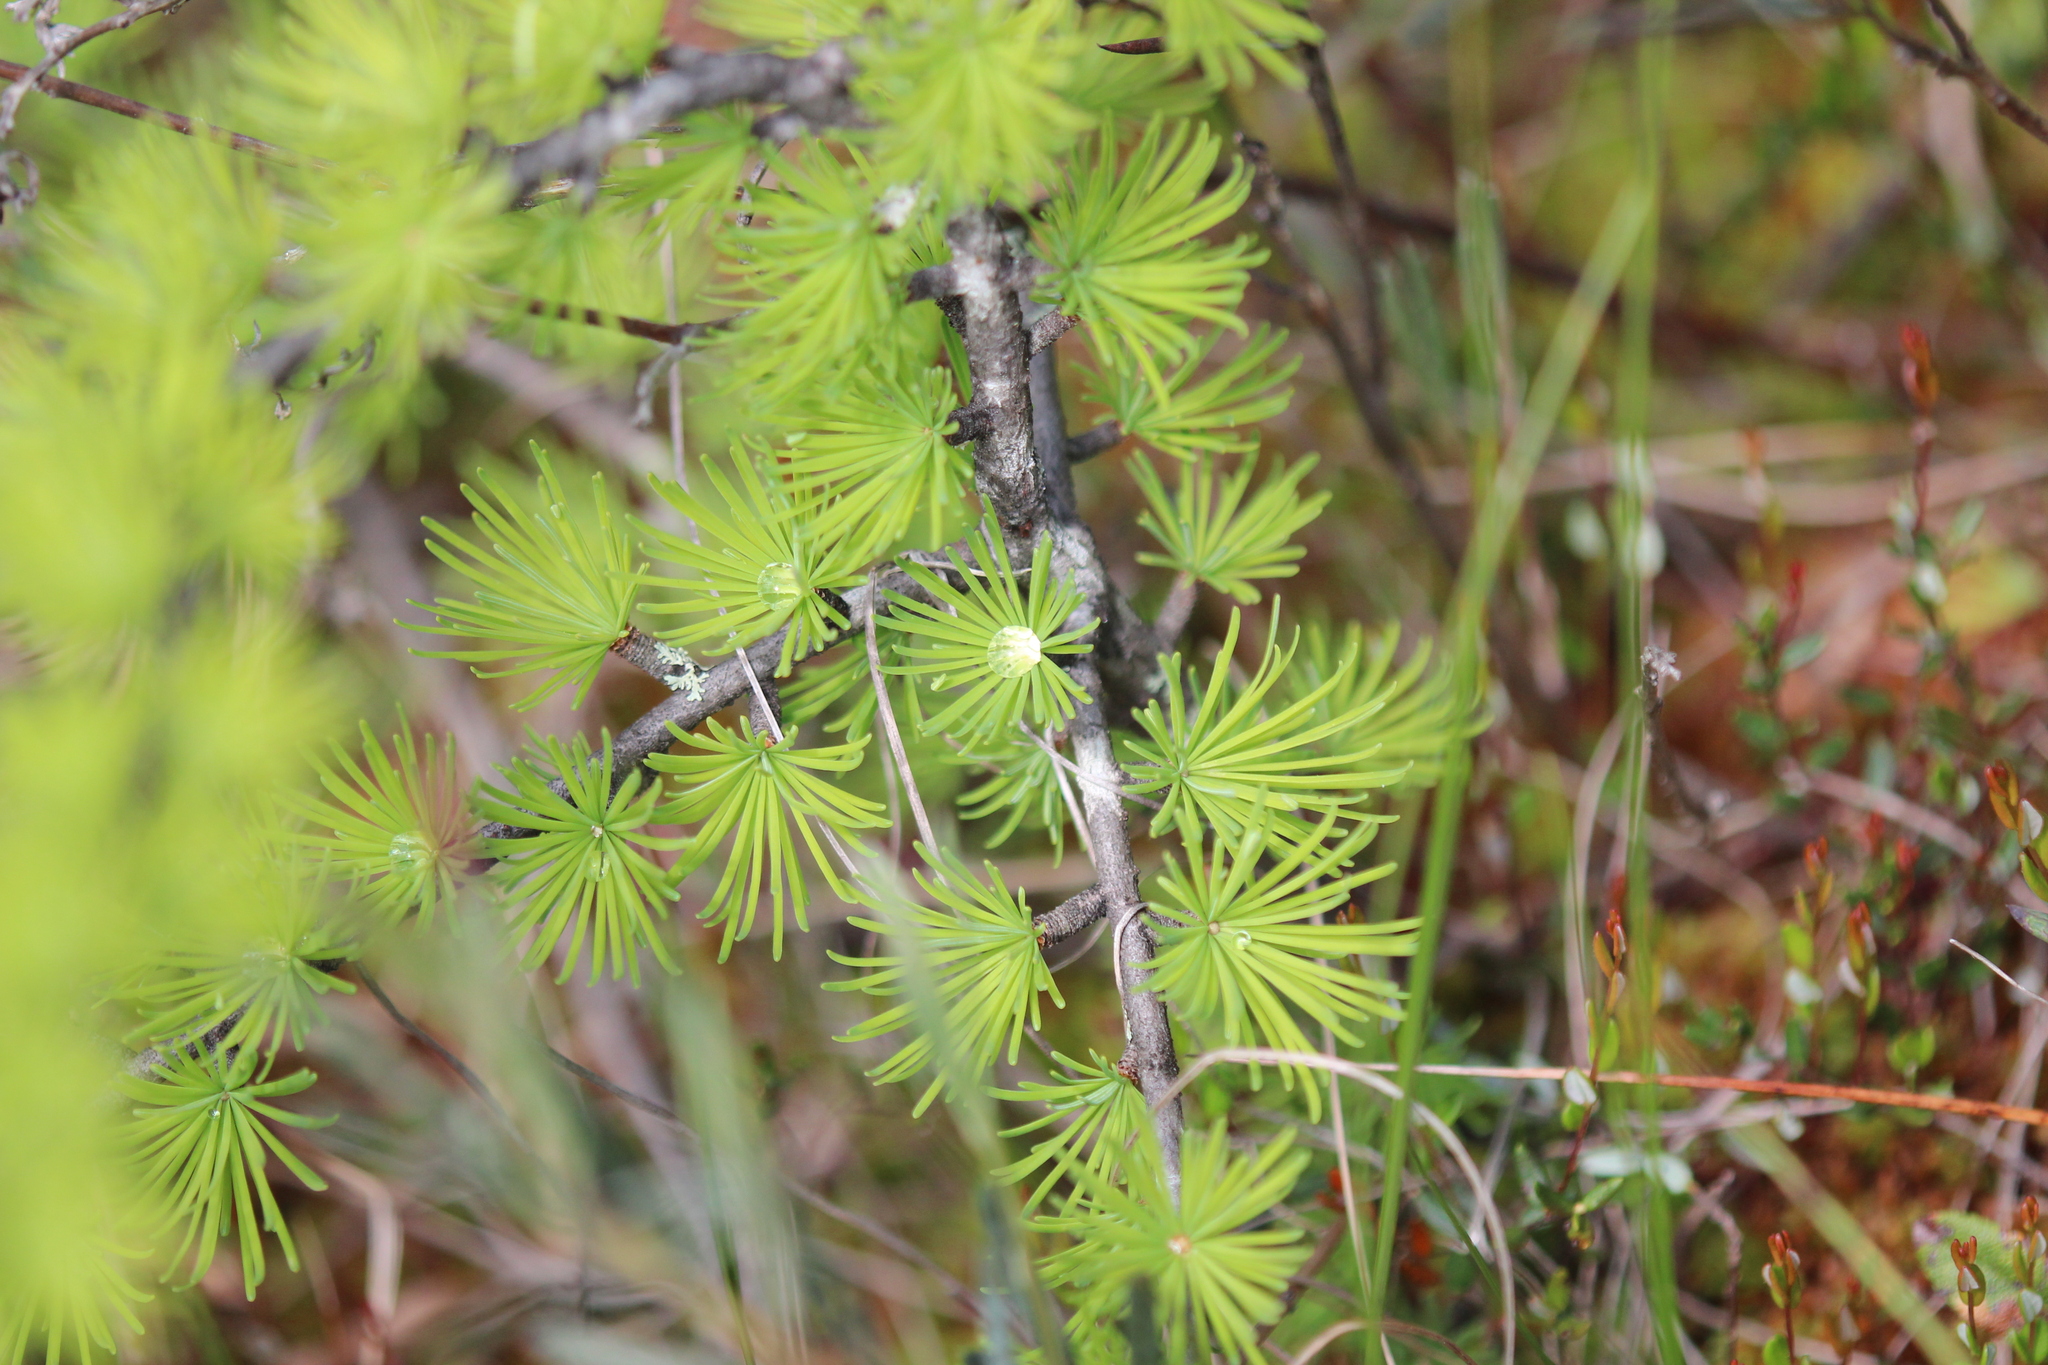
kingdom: Plantae
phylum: Tracheophyta
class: Pinopsida
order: Pinales
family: Pinaceae
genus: Larix
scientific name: Larix laricina
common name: American larch
